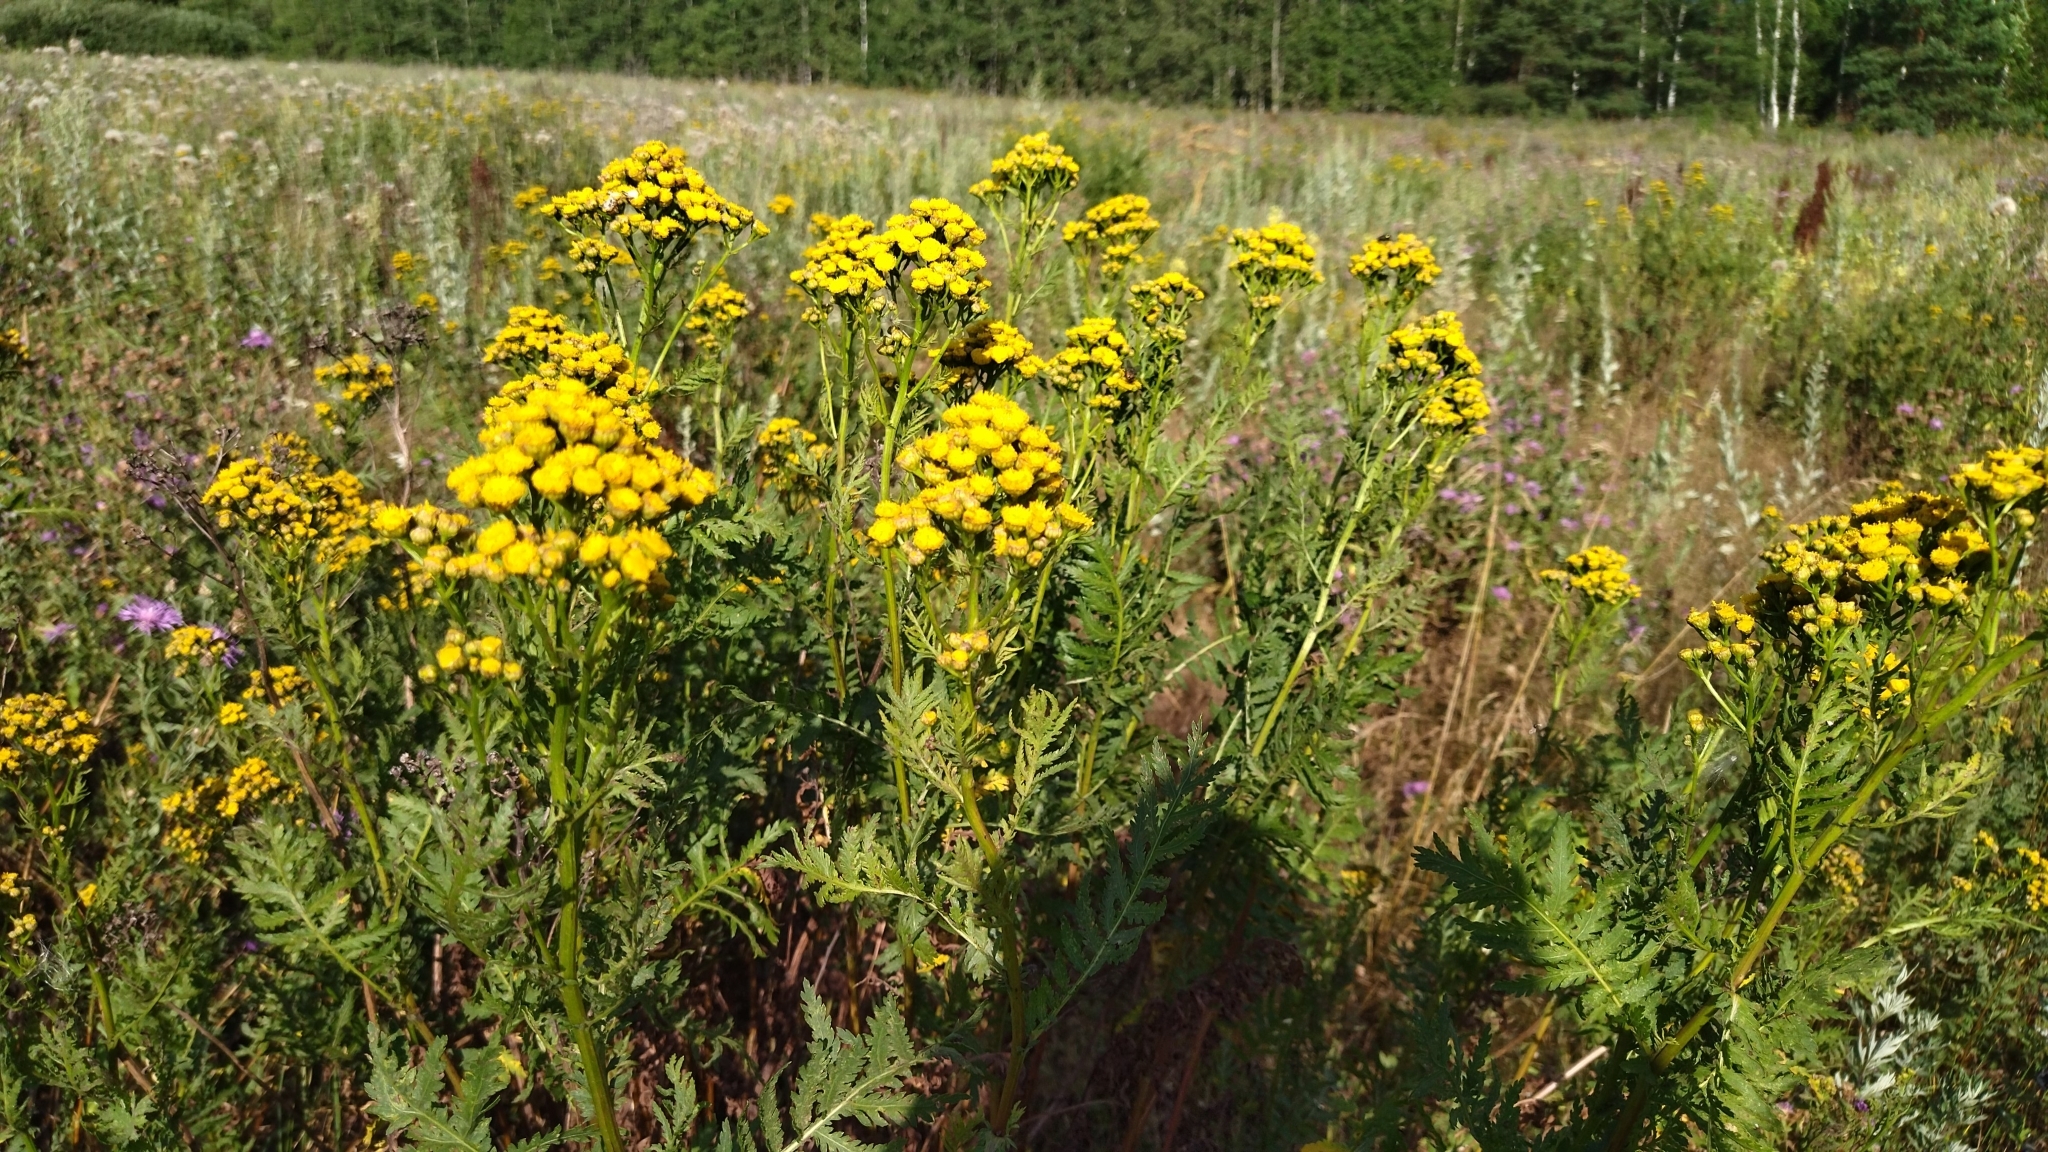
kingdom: Plantae
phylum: Tracheophyta
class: Magnoliopsida
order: Asterales
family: Asteraceae
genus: Tanacetum
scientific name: Tanacetum vulgare
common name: Common tansy
